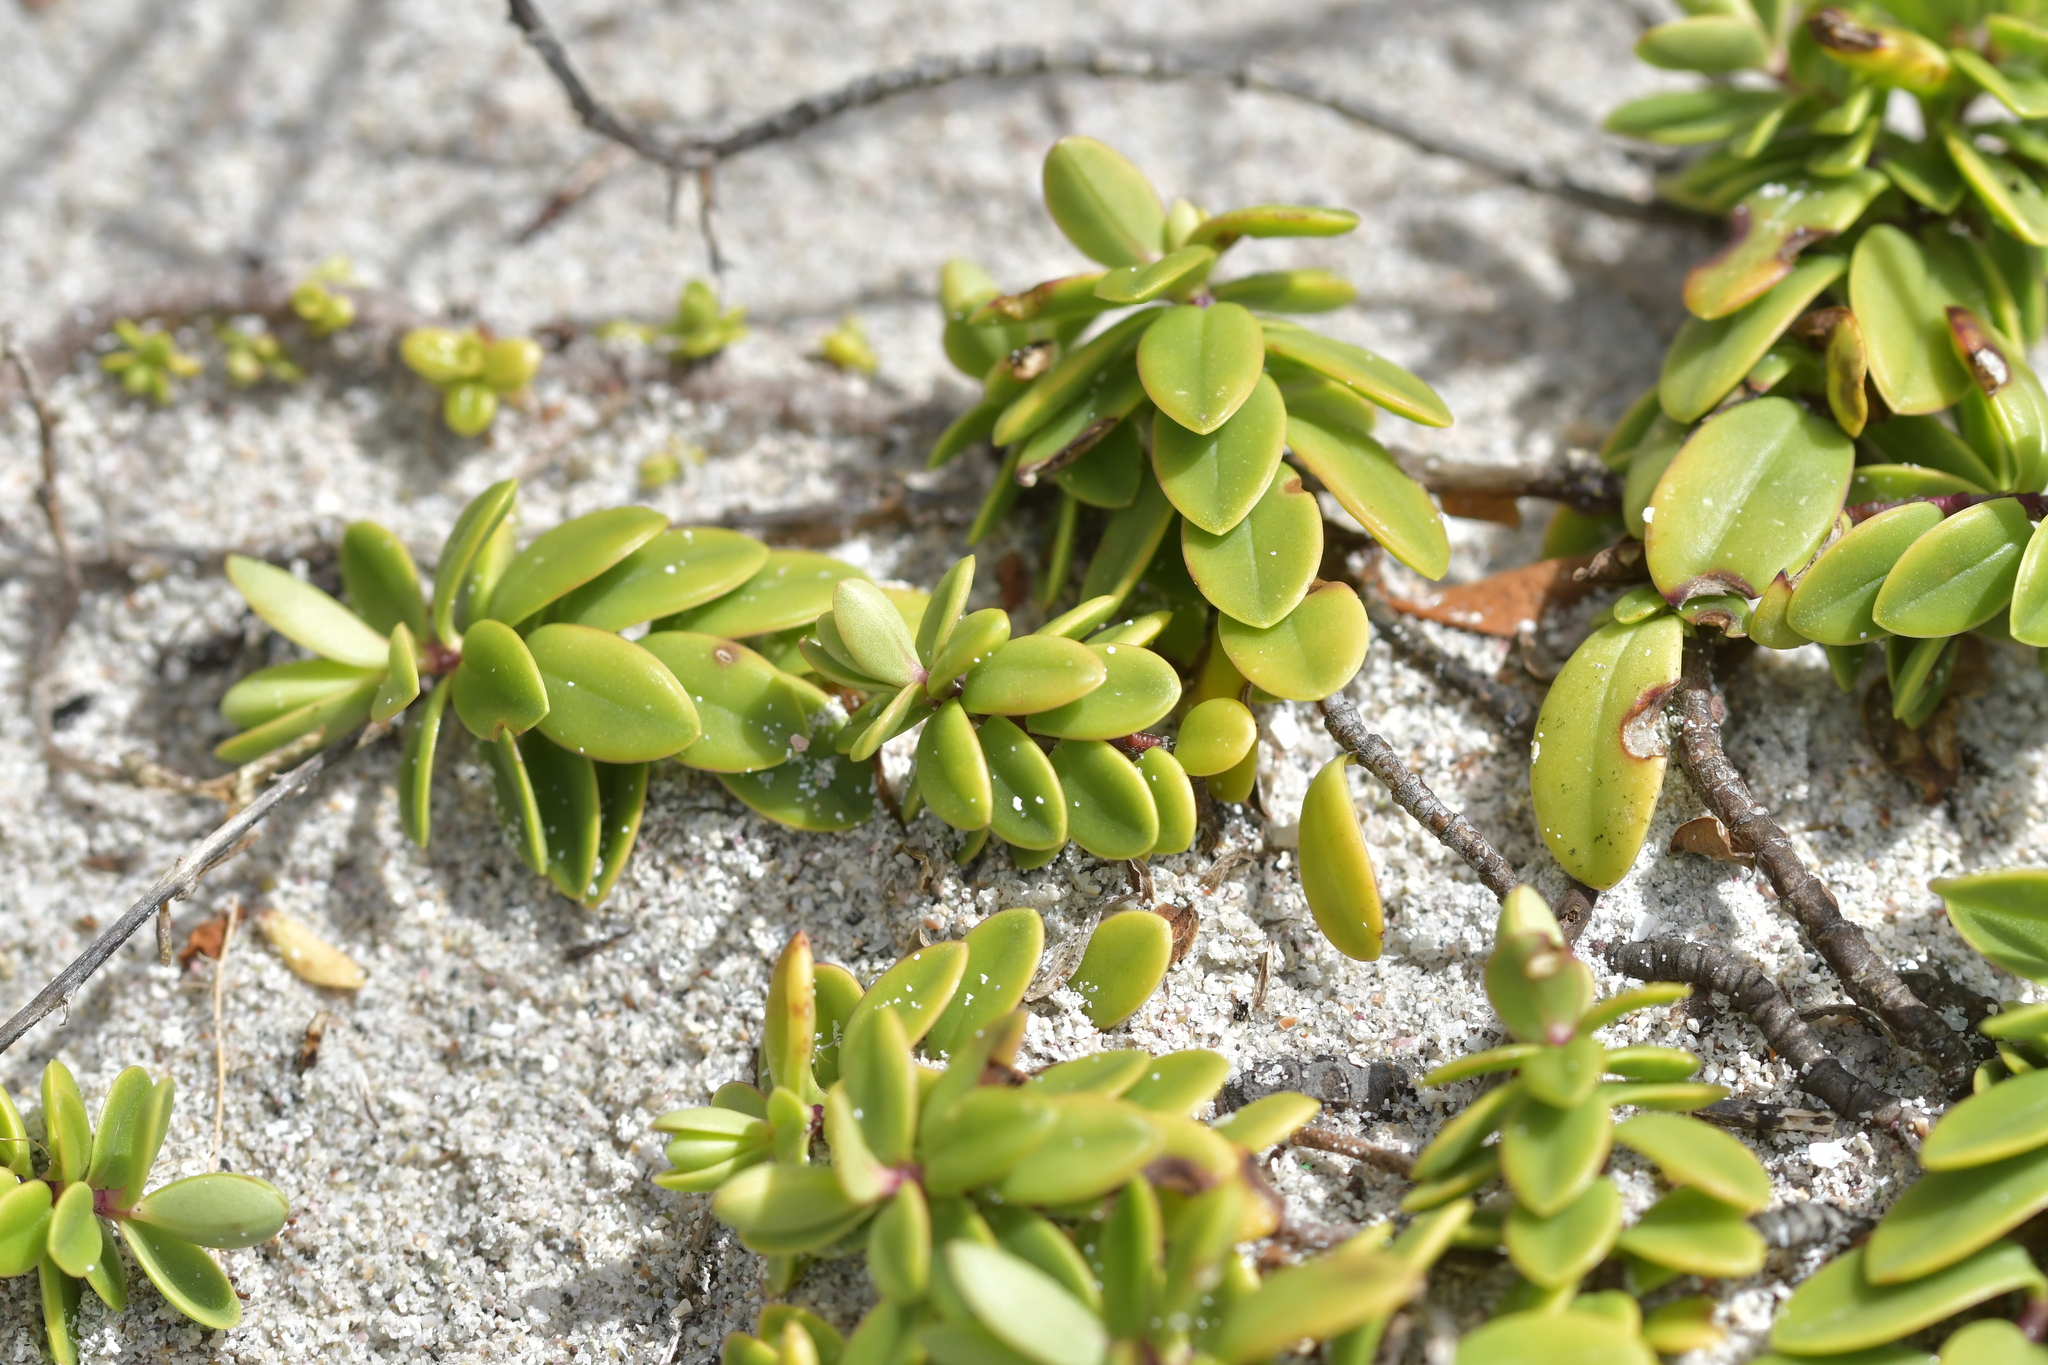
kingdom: Plantae
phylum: Tracheophyta
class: Magnoliopsida
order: Lamiales
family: Plantaginaceae
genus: Veronica
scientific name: Veronica chathamica
